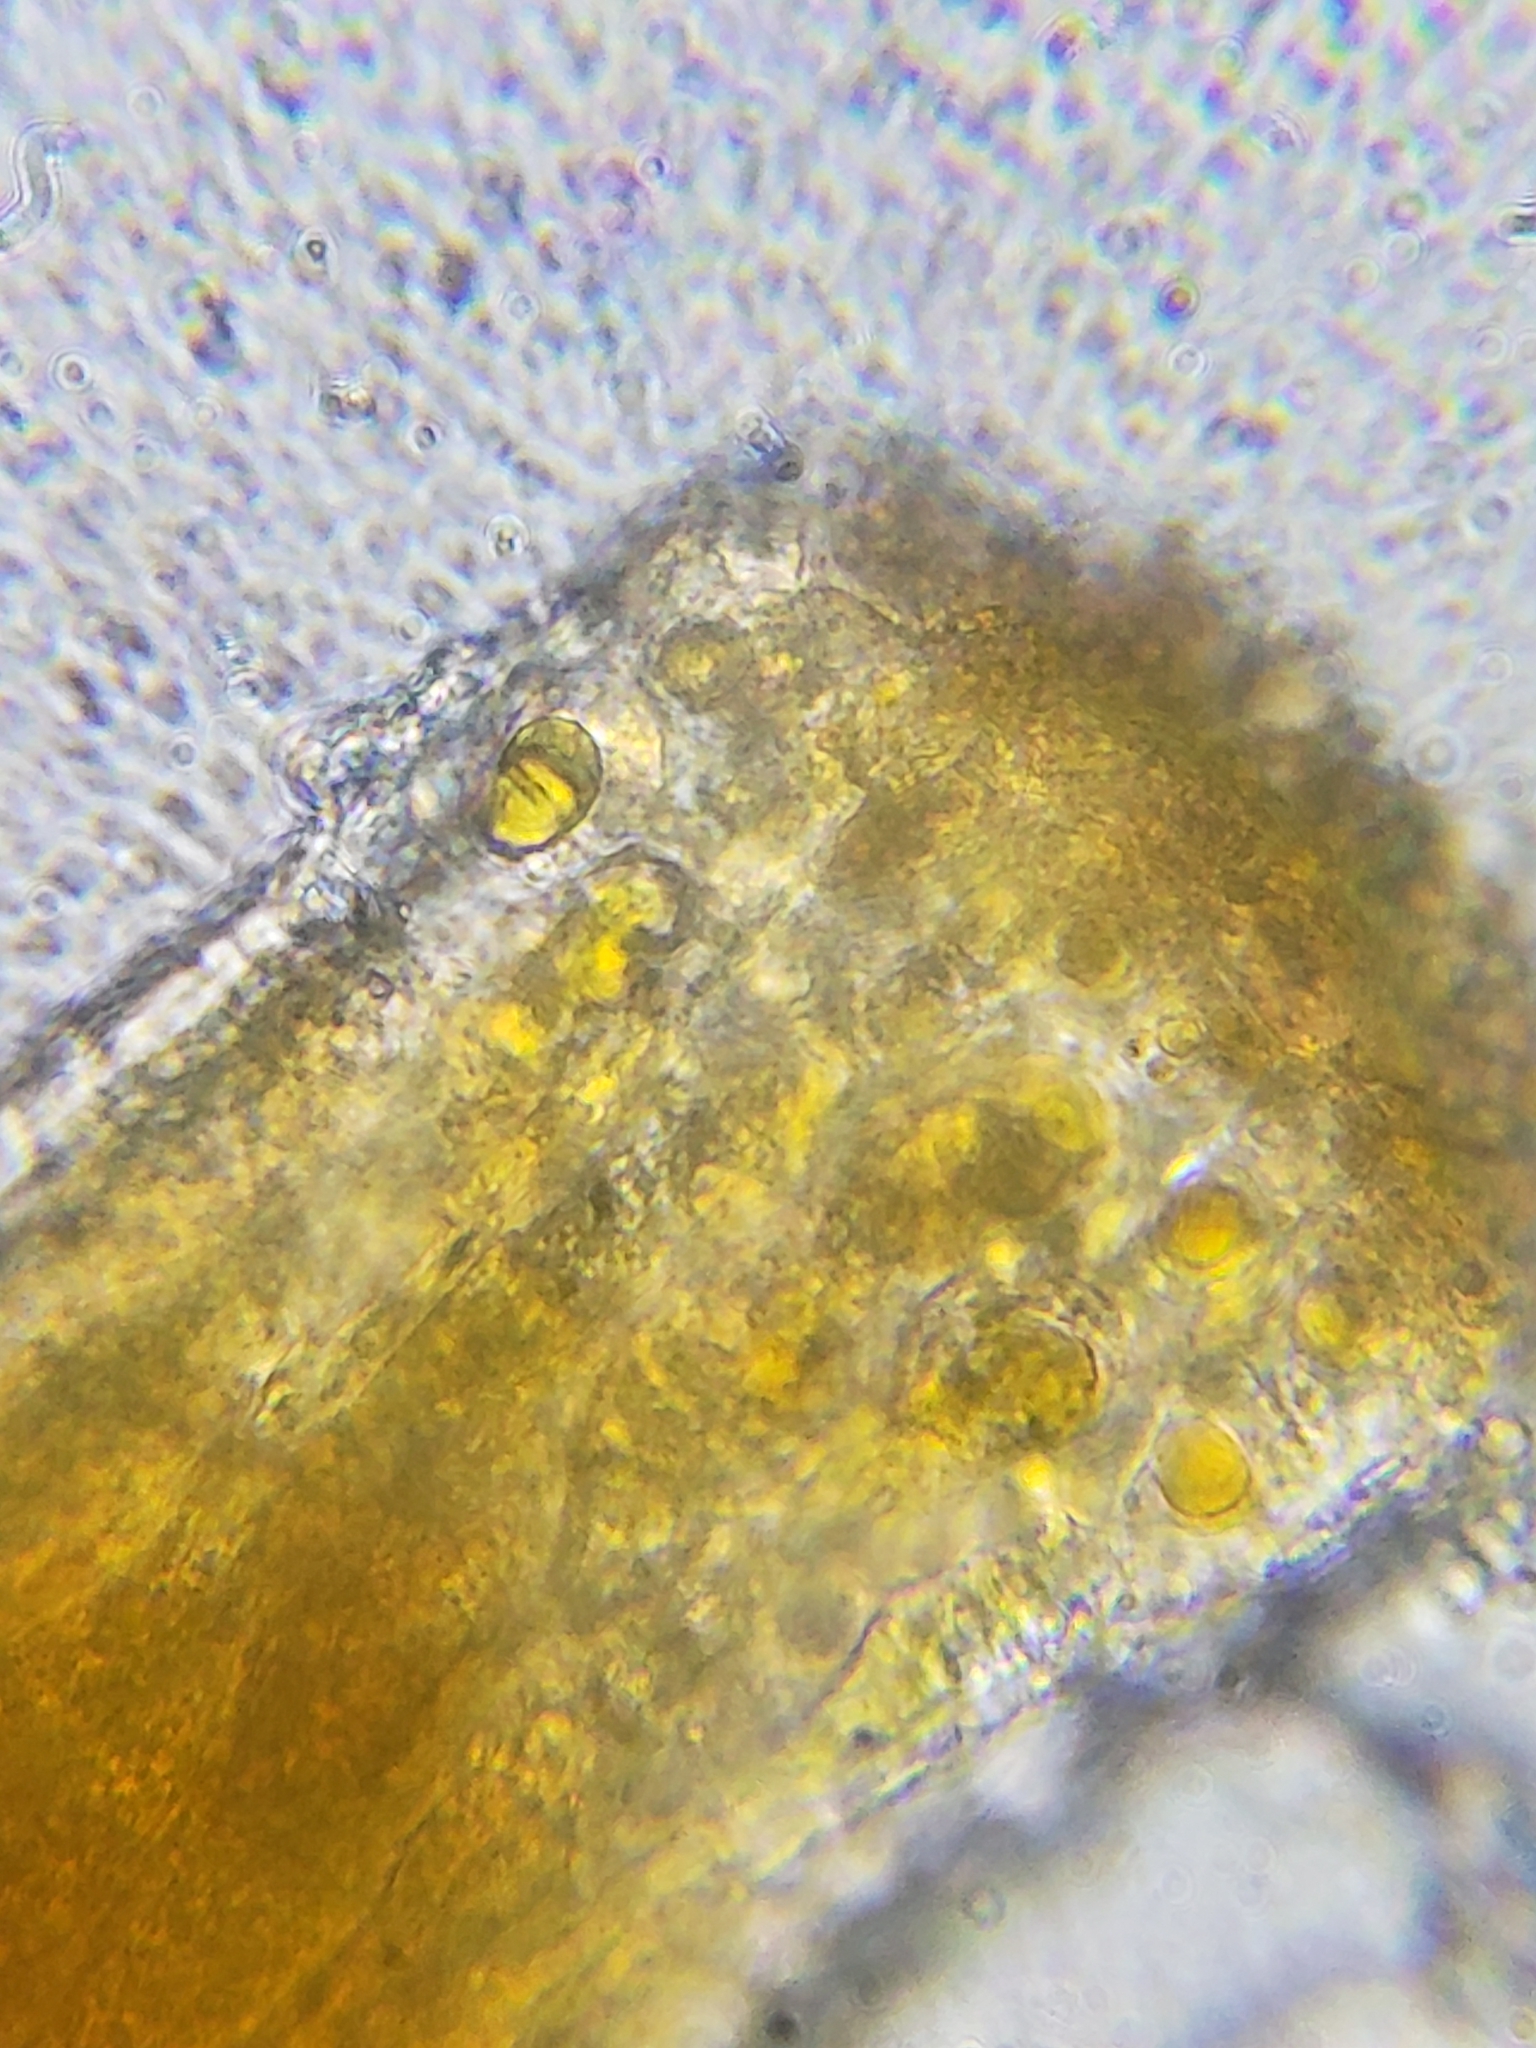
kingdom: Fungi
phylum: Basidiomycota
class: Pucciniomycetes
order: Pucciniales
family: Cronartiaceae
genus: Cronartium
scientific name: Cronartium quercuum
